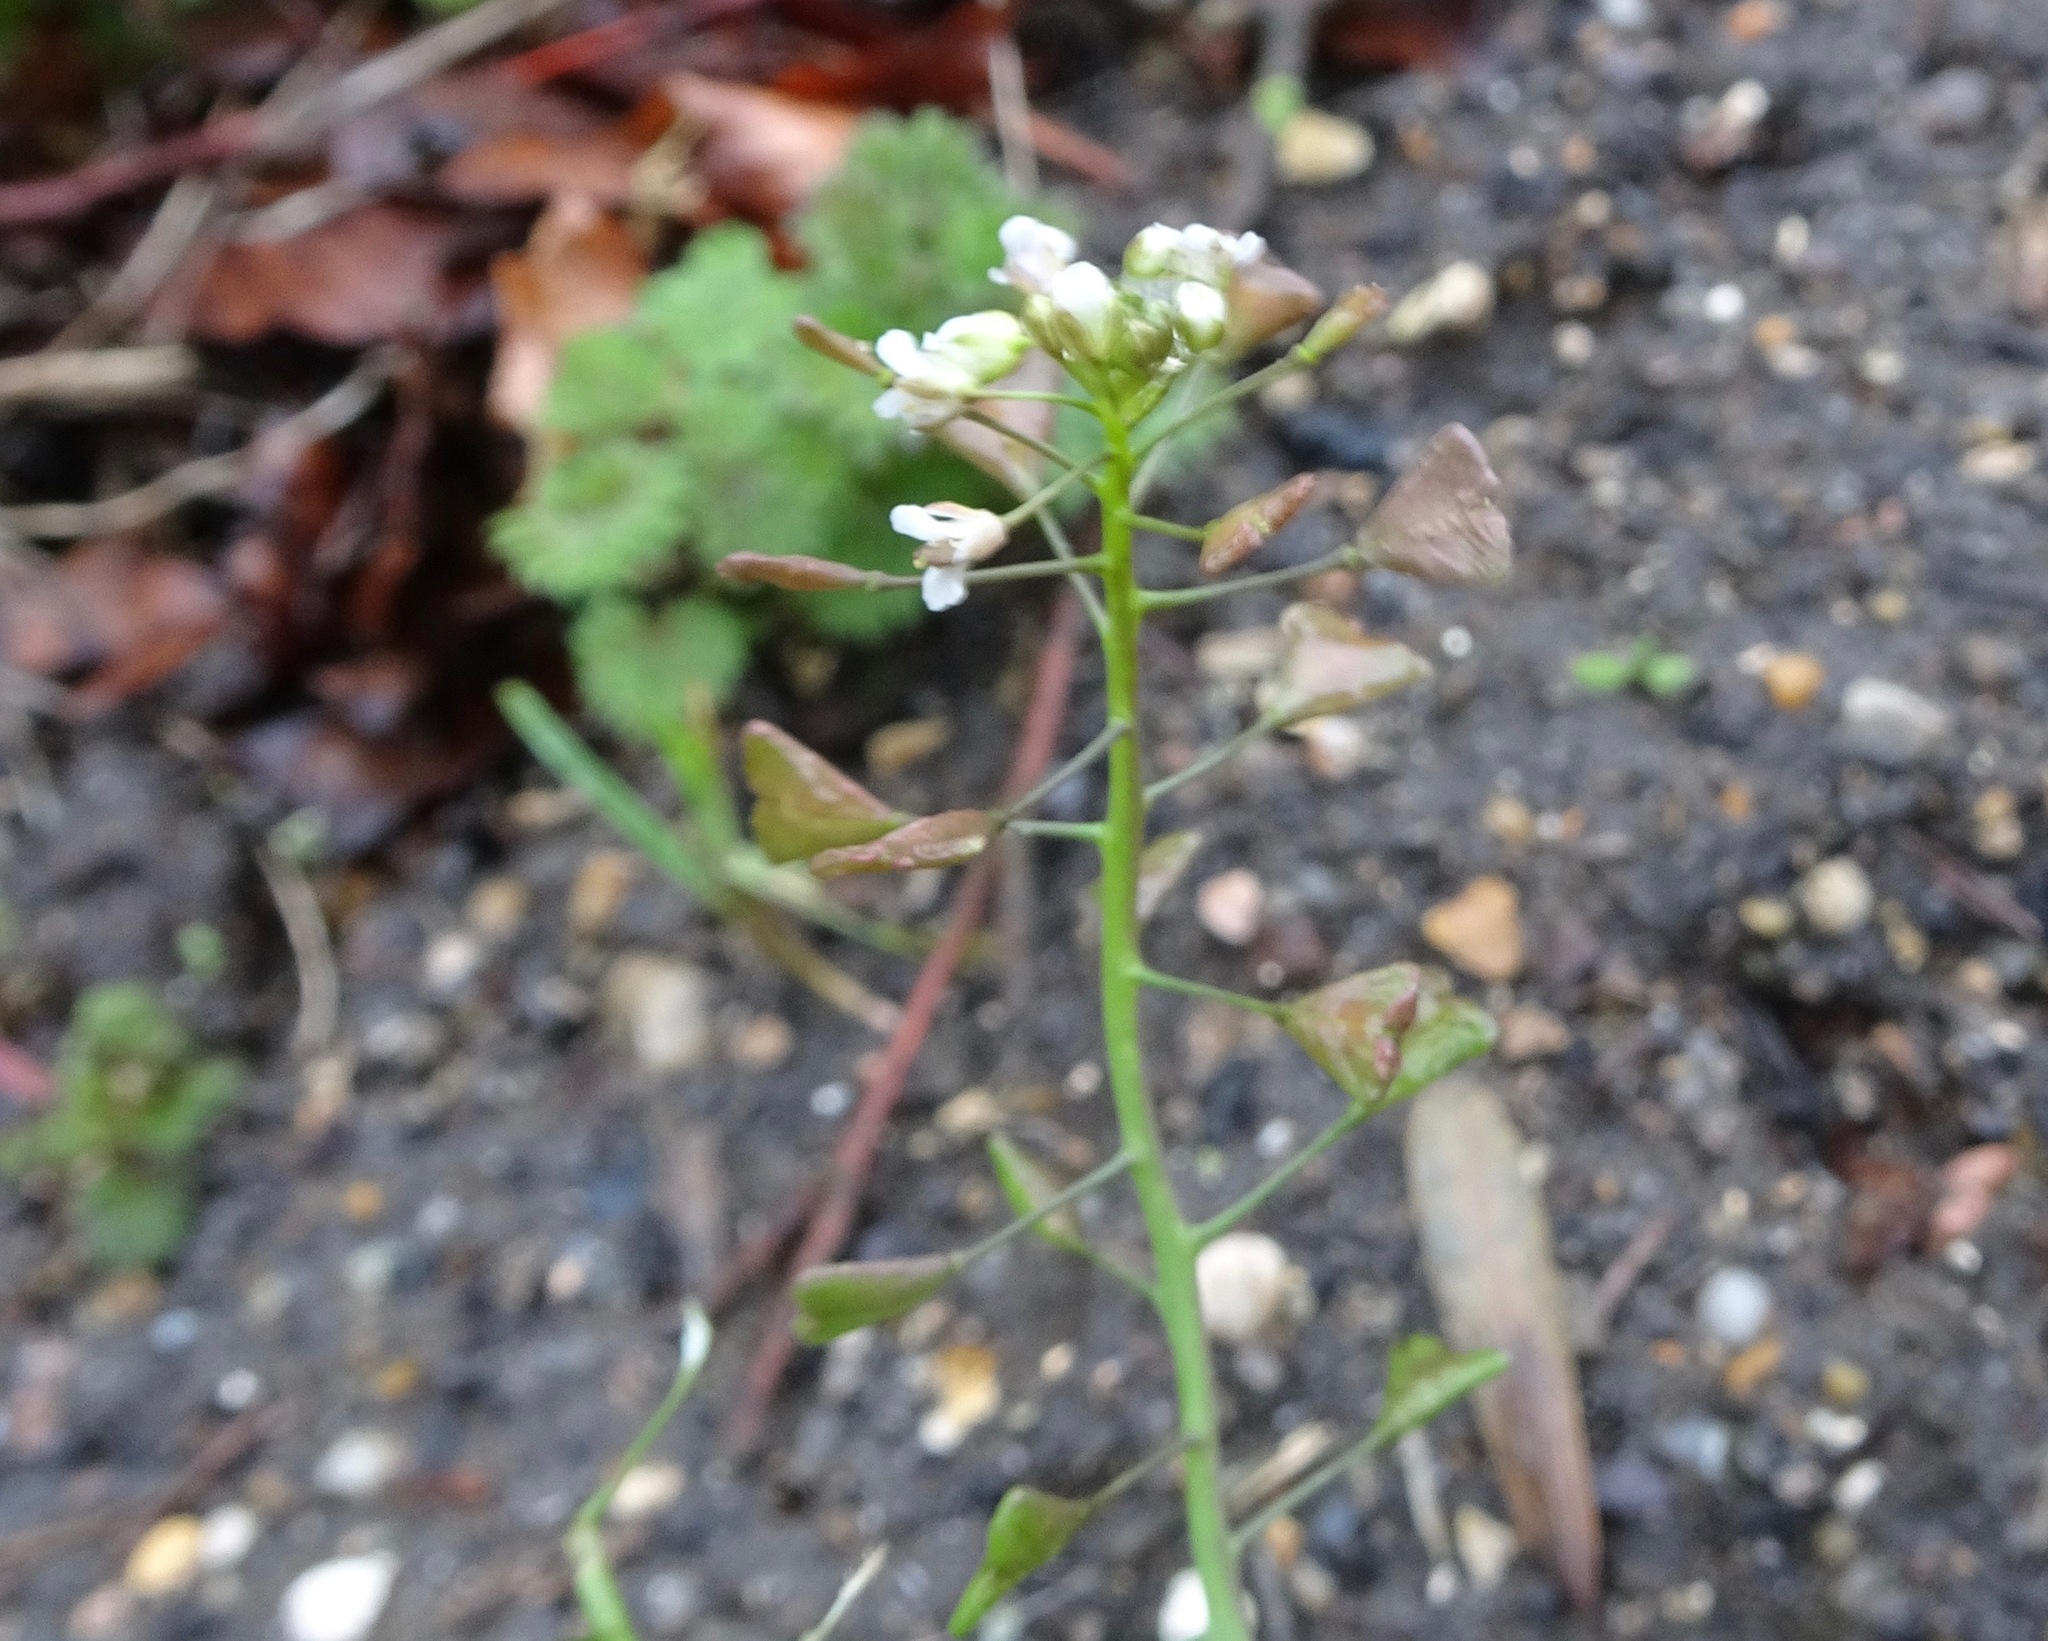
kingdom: Plantae
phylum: Tracheophyta
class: Magnoliopsida
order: Brassicales
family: Brassicaceae
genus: Capsella
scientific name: Capsella bursa-pastoris
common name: Shepherd's purse
